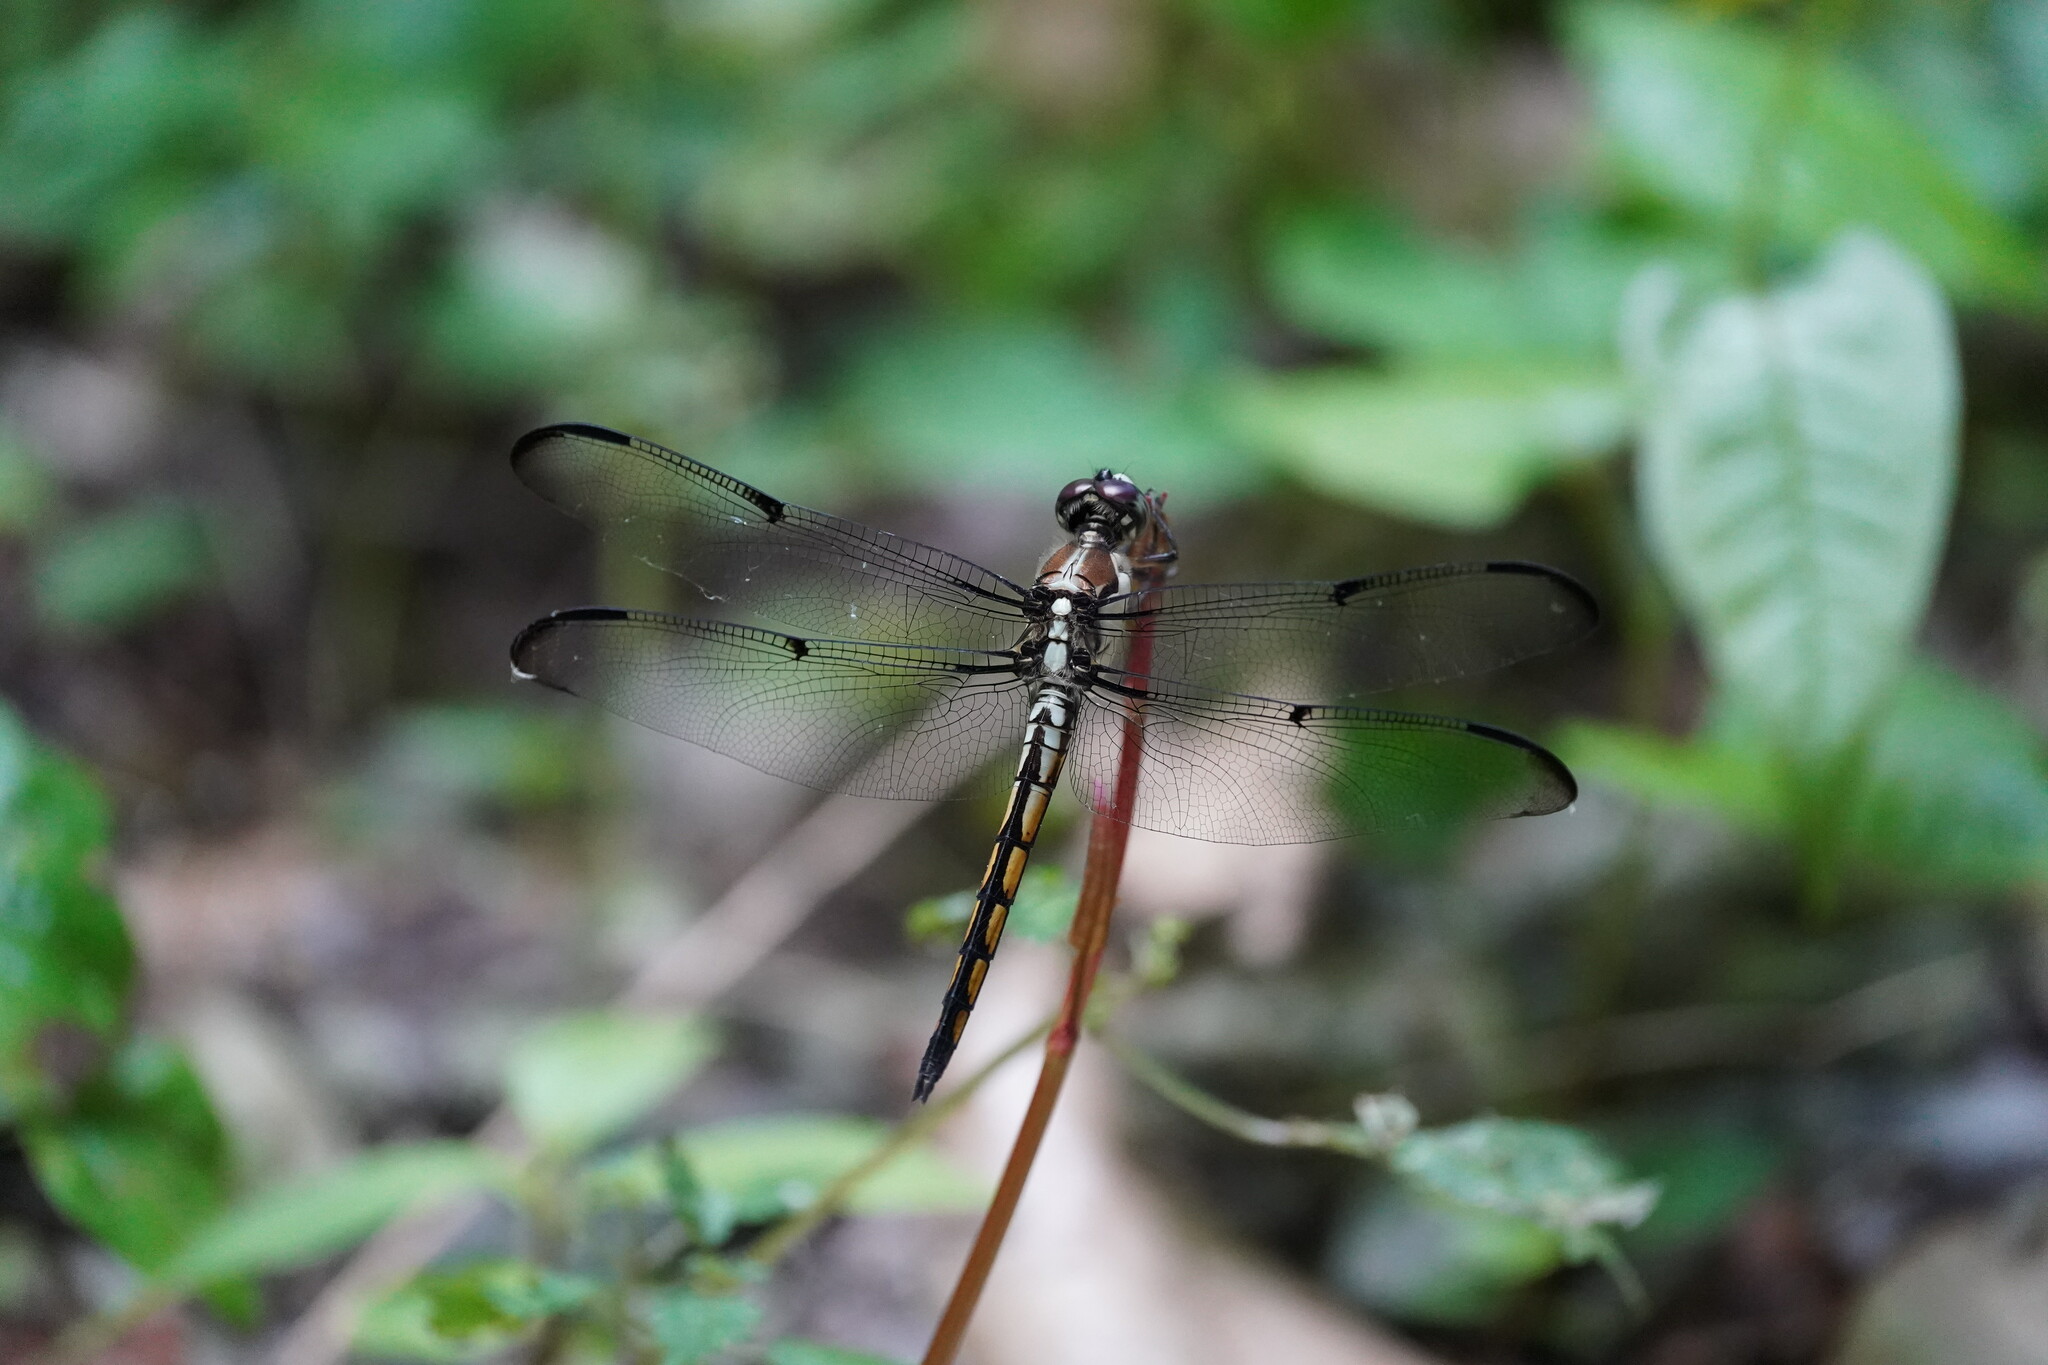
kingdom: Animalia
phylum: Arthropoda
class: Insecta
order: Odonata
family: Libellulidae
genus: Libellula
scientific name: Libellula vibrans
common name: Great blue skimmer
